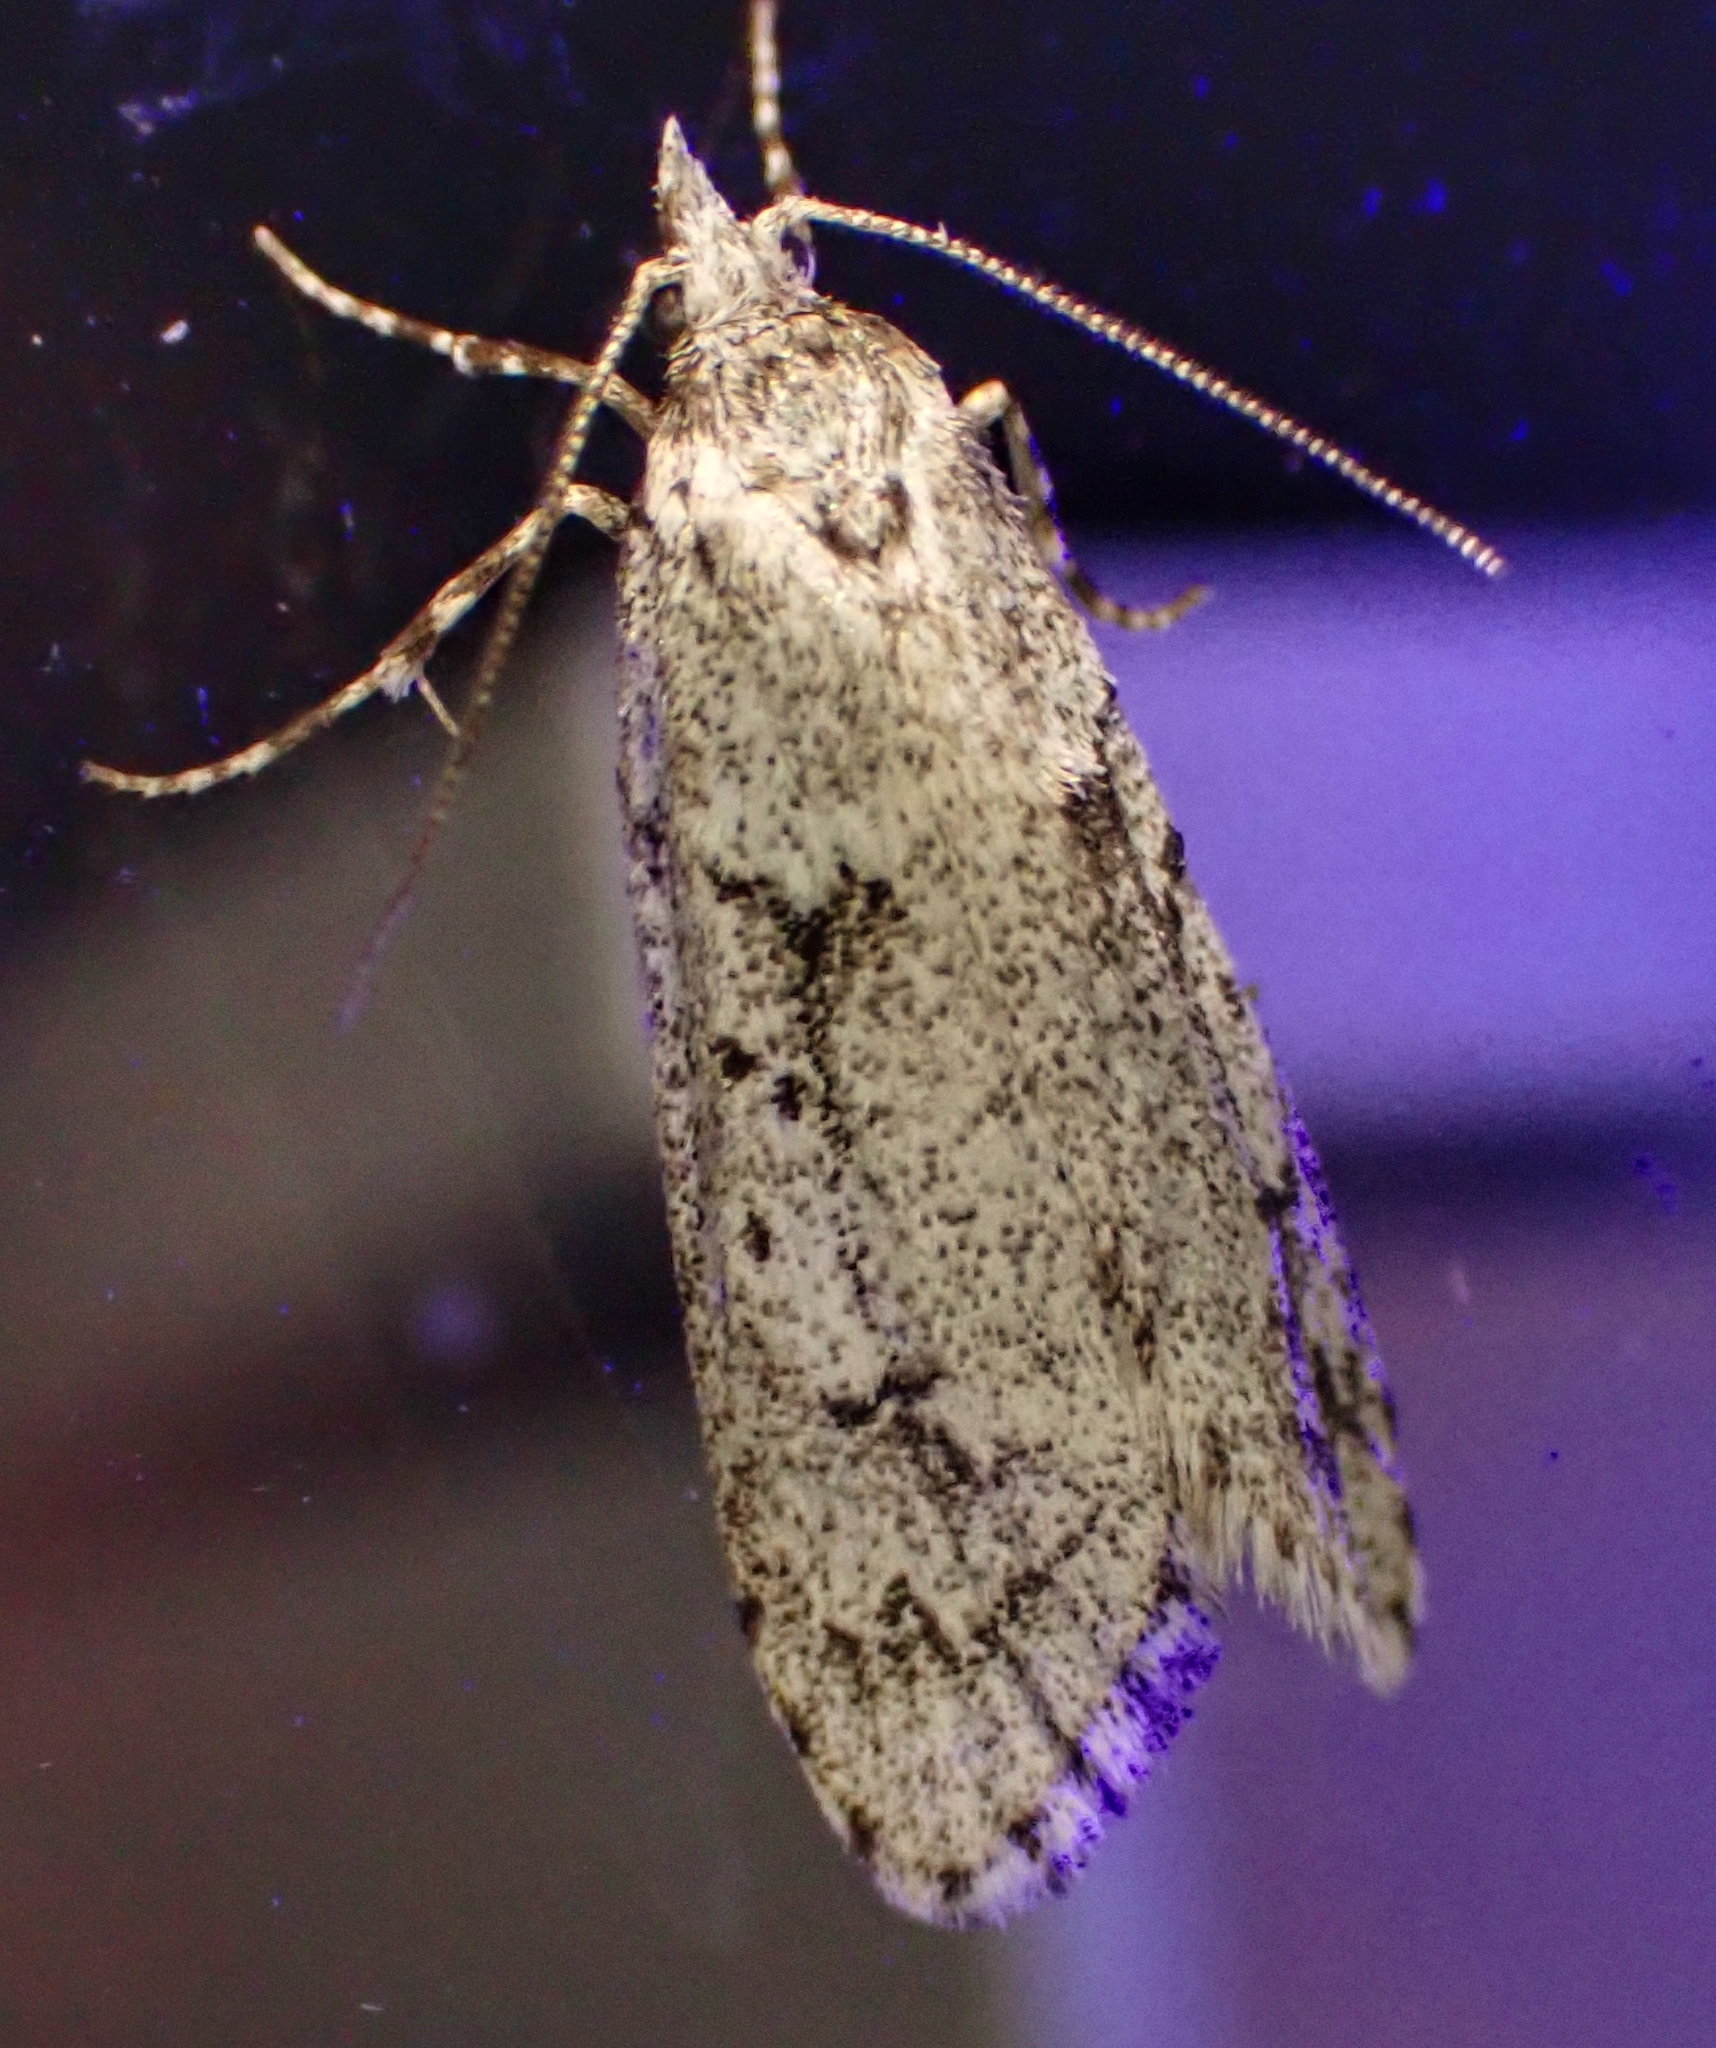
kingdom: Animalia
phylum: Arthropoda
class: Insecta
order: Lepidoptera
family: Lypusidae
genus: Diurnea
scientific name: Diurnea fagella
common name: March tubic
